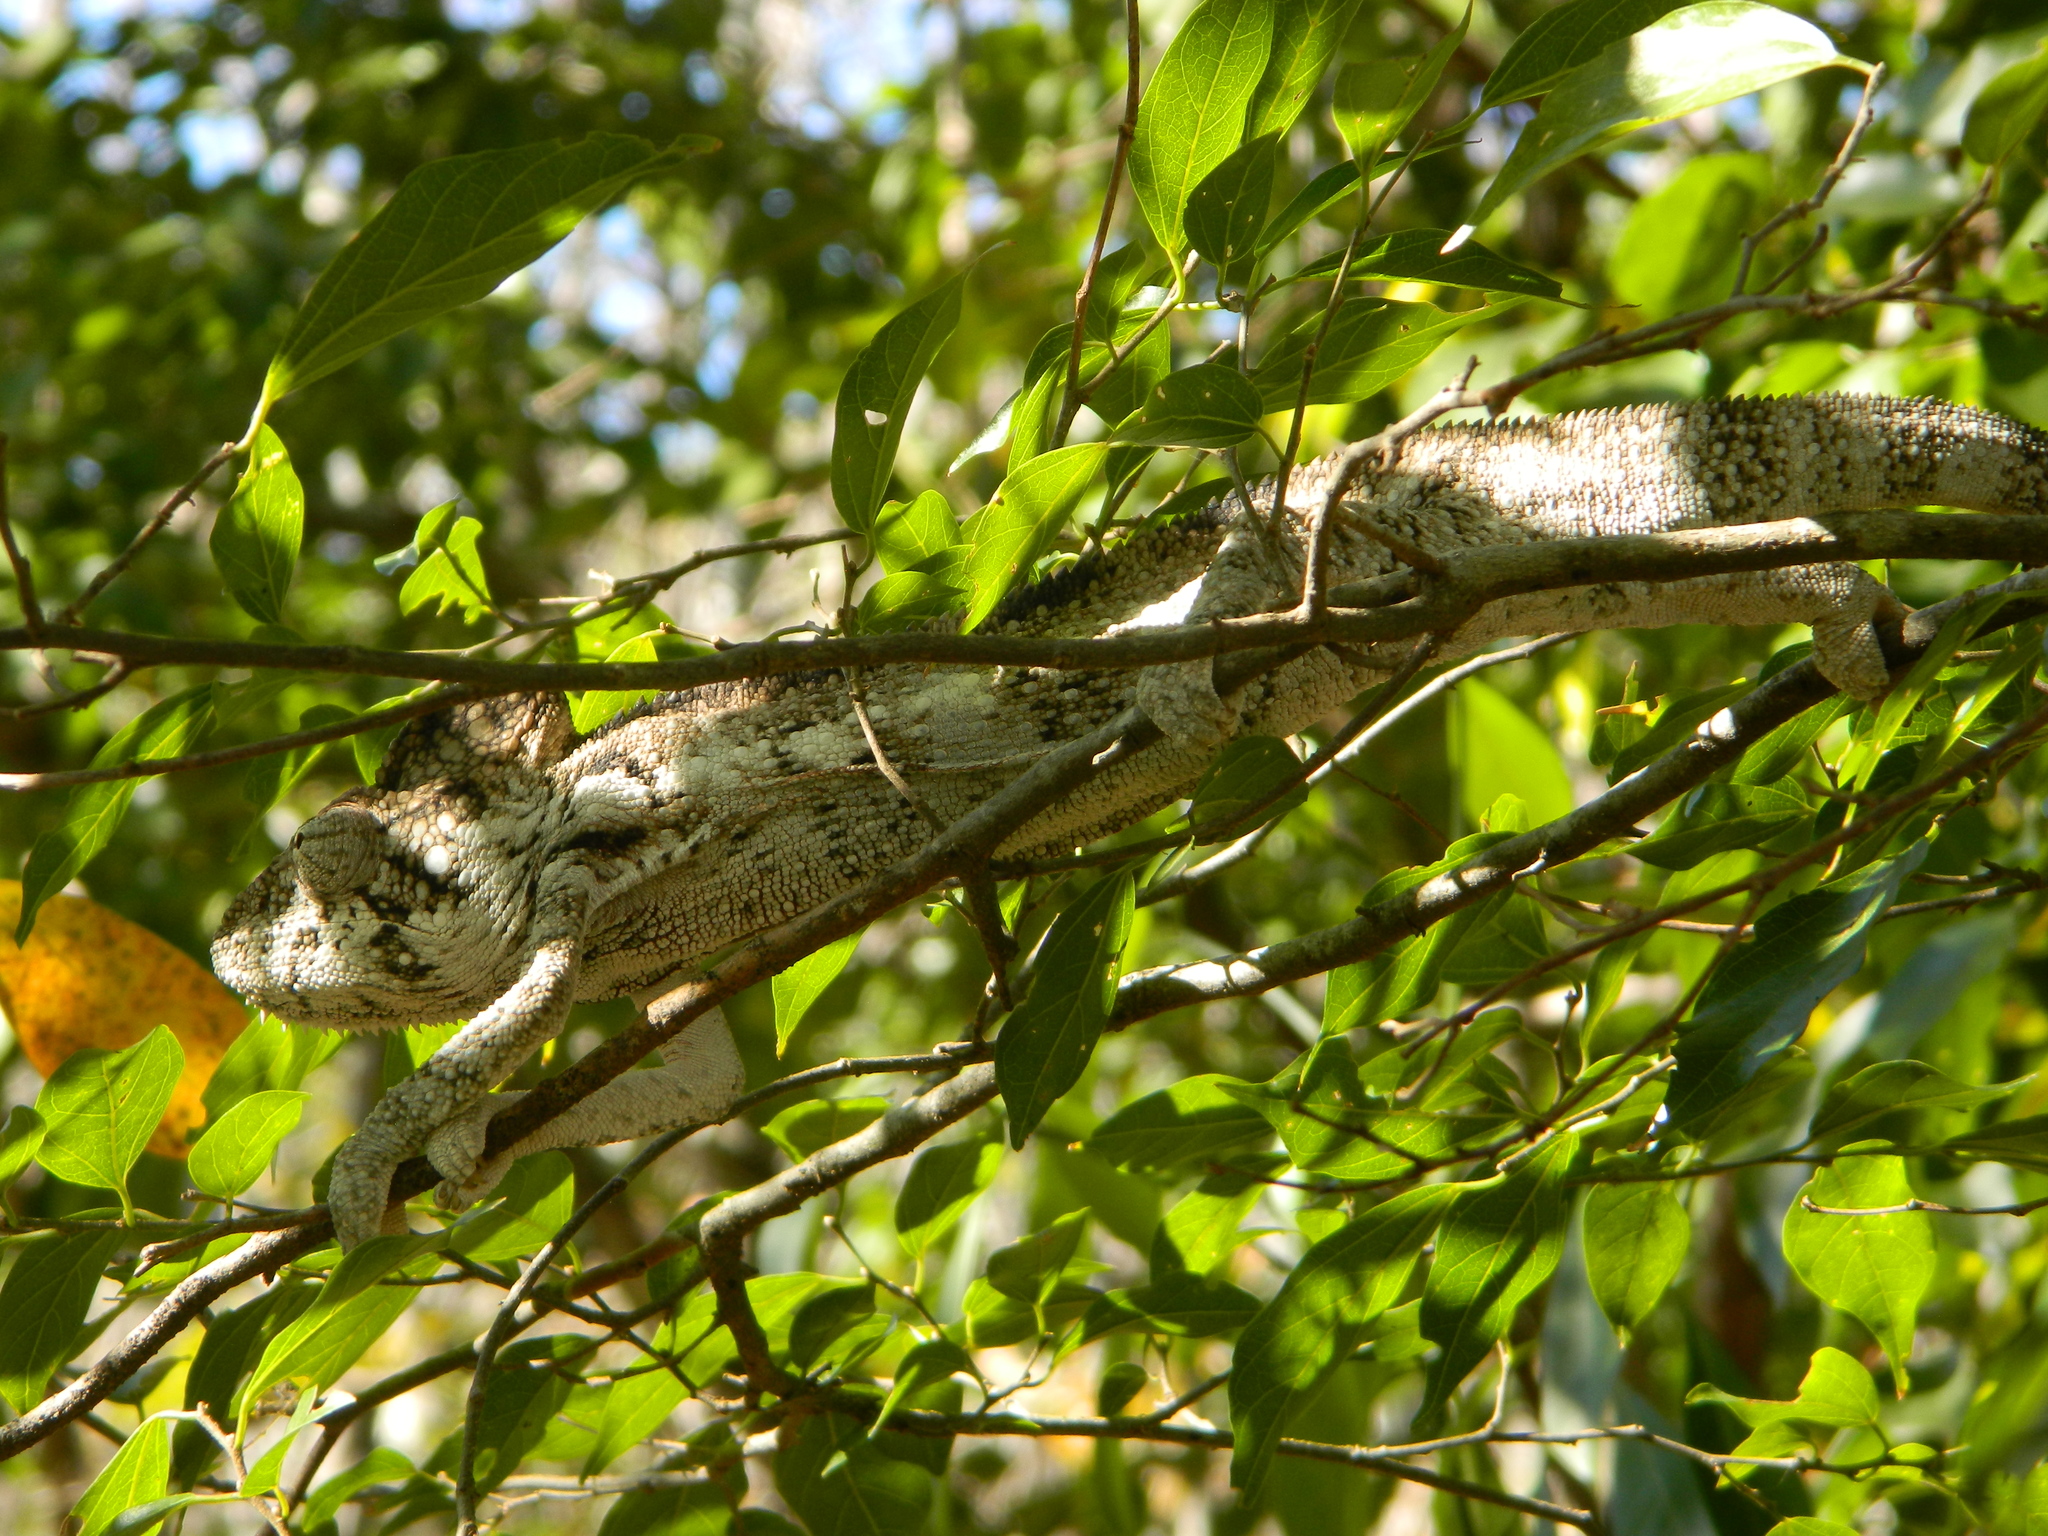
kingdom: Animalia
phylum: Chordata
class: Squamata
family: Chamaeleonidae
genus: Furcifer
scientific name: Furcifer oustaleti
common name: Oustalet's chameleon
